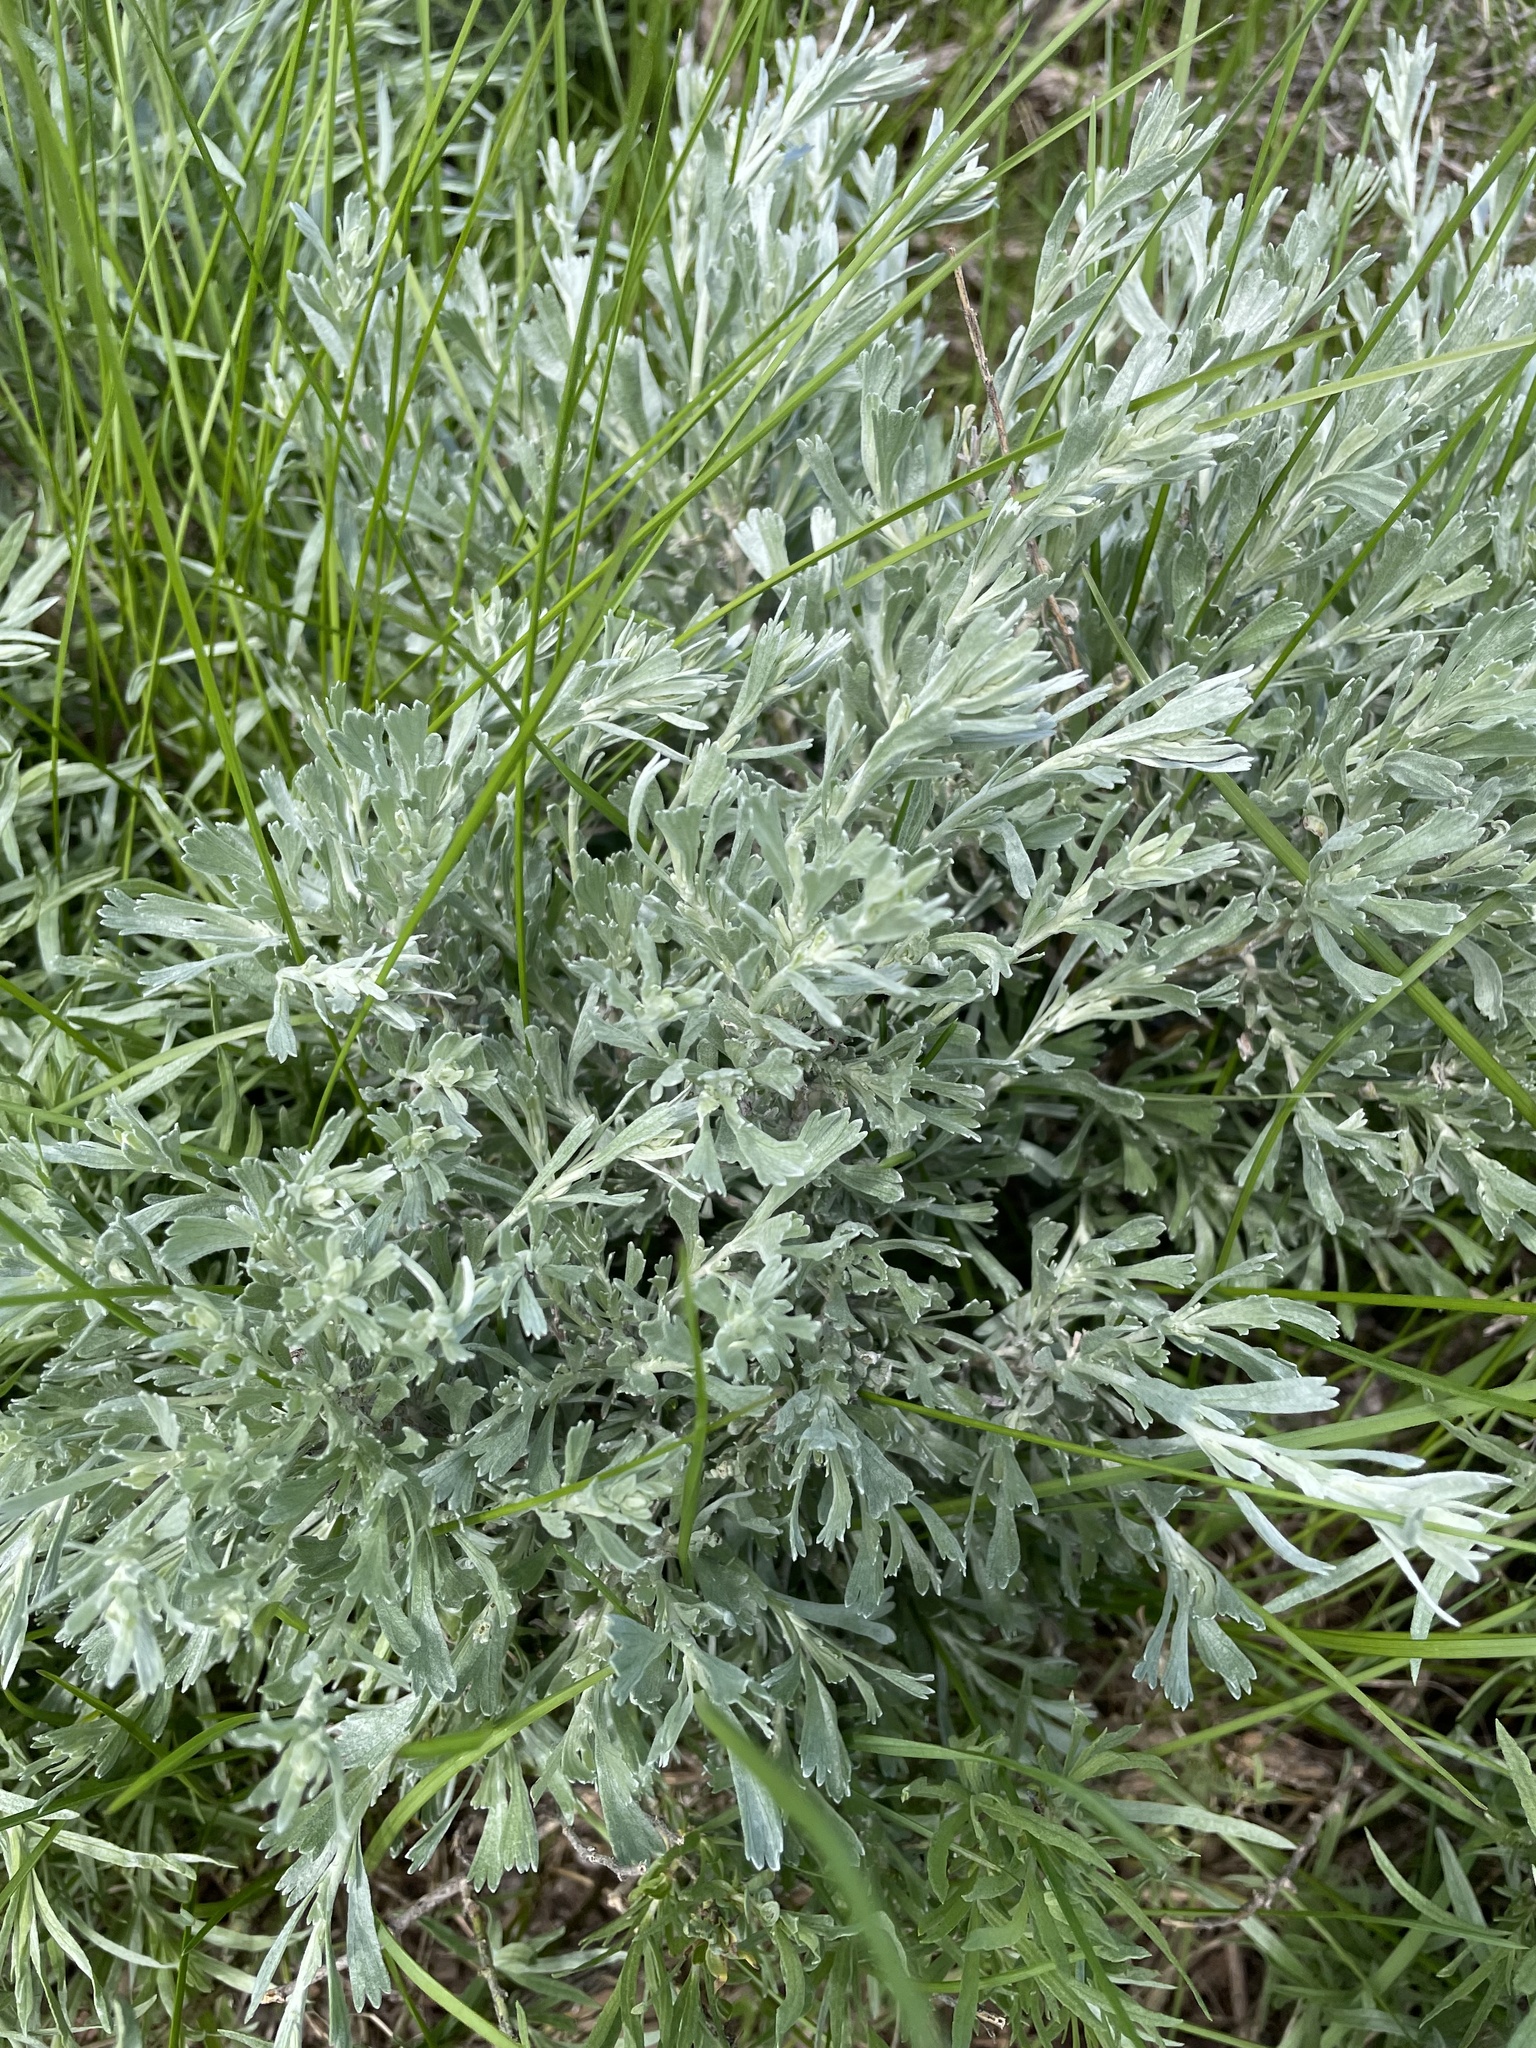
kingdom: Plantae
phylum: Tracheophyta
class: Magnoliopsida
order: Asterales
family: Asteraceae
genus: Artemisia
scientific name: Artemisia tridentata
